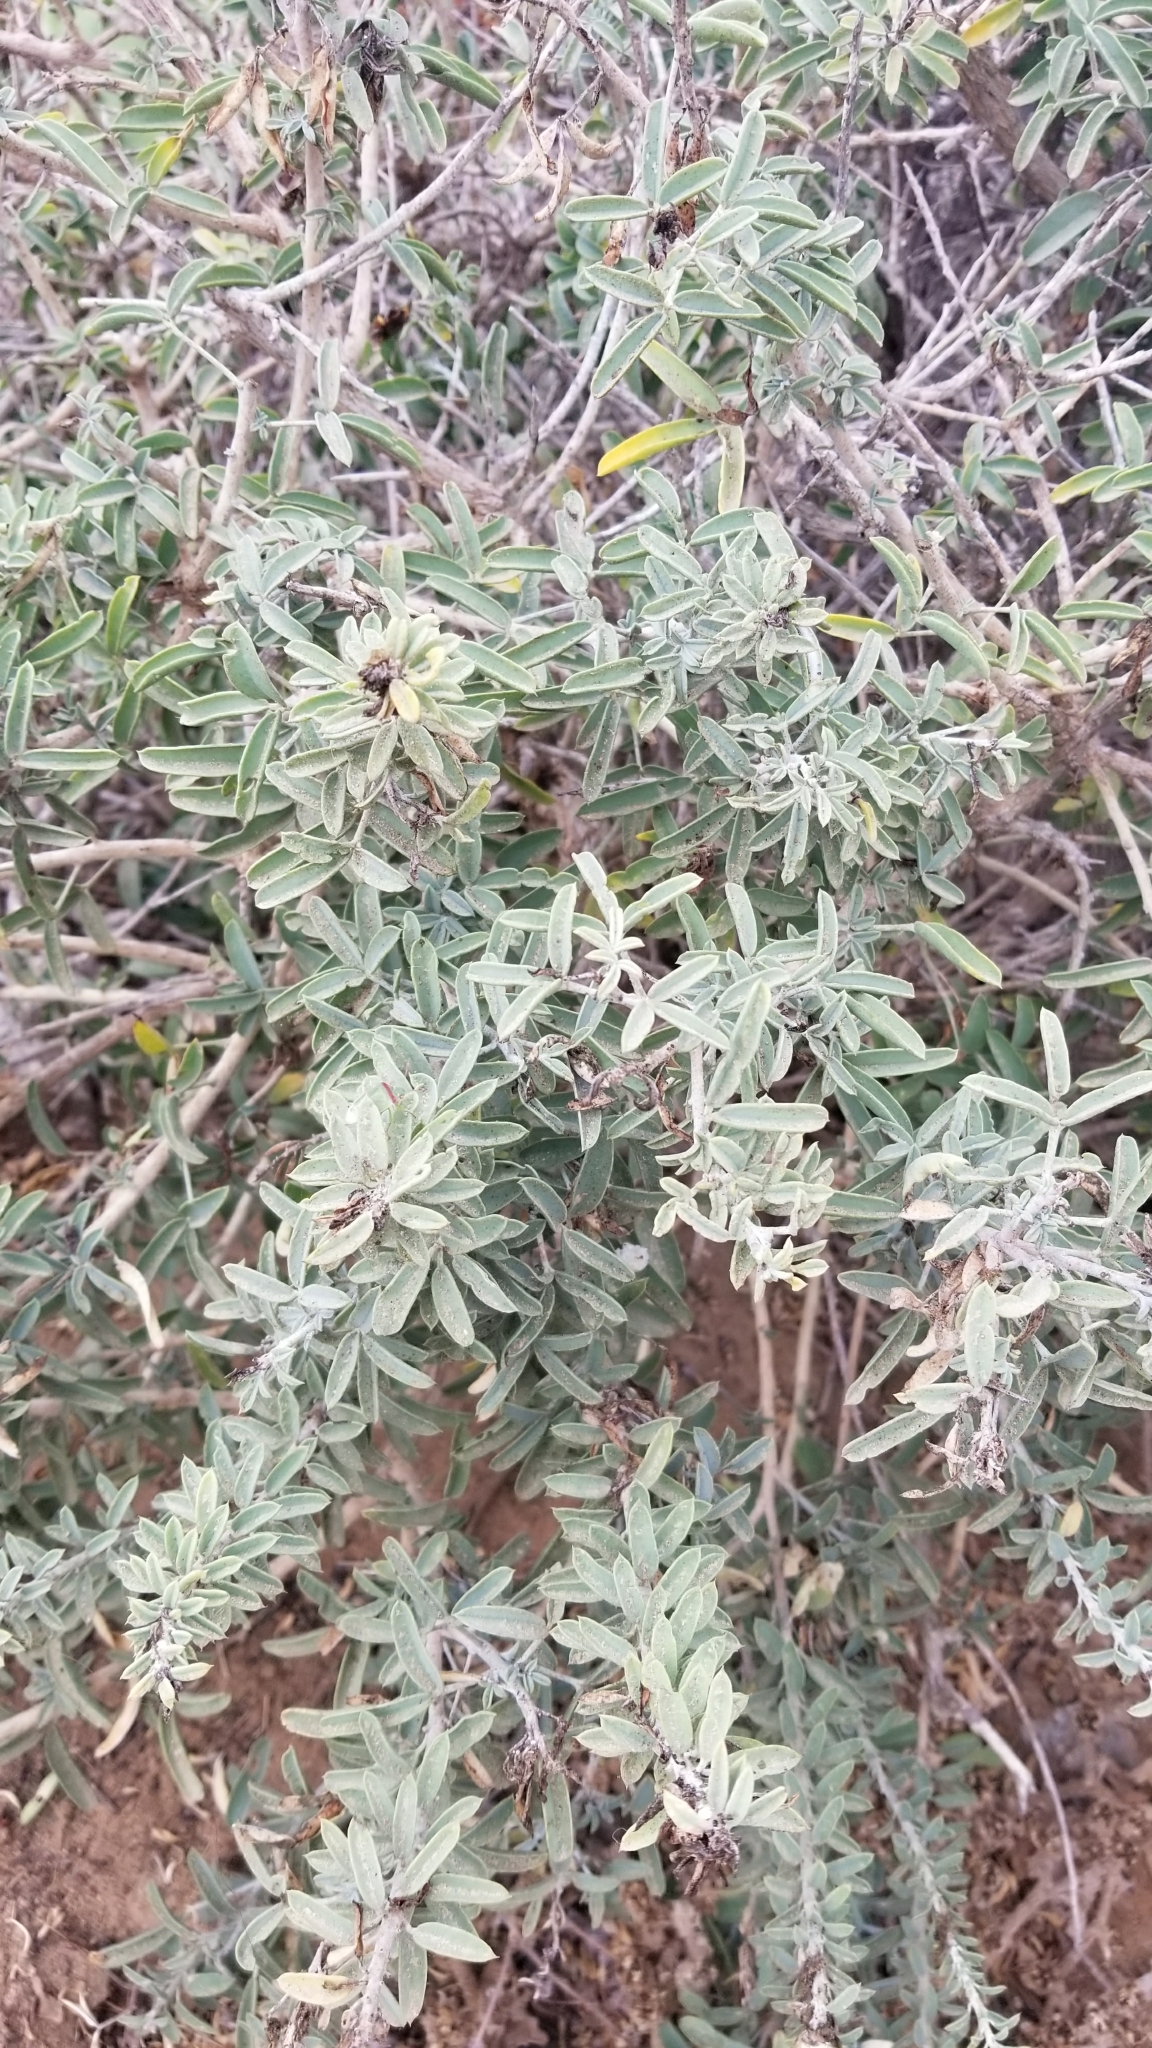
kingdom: Plantae
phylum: Tracheophyta
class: Magnoliopsida
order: Brassicales
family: Cleomaceae
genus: Cleomella
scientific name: Cleomella arborea
